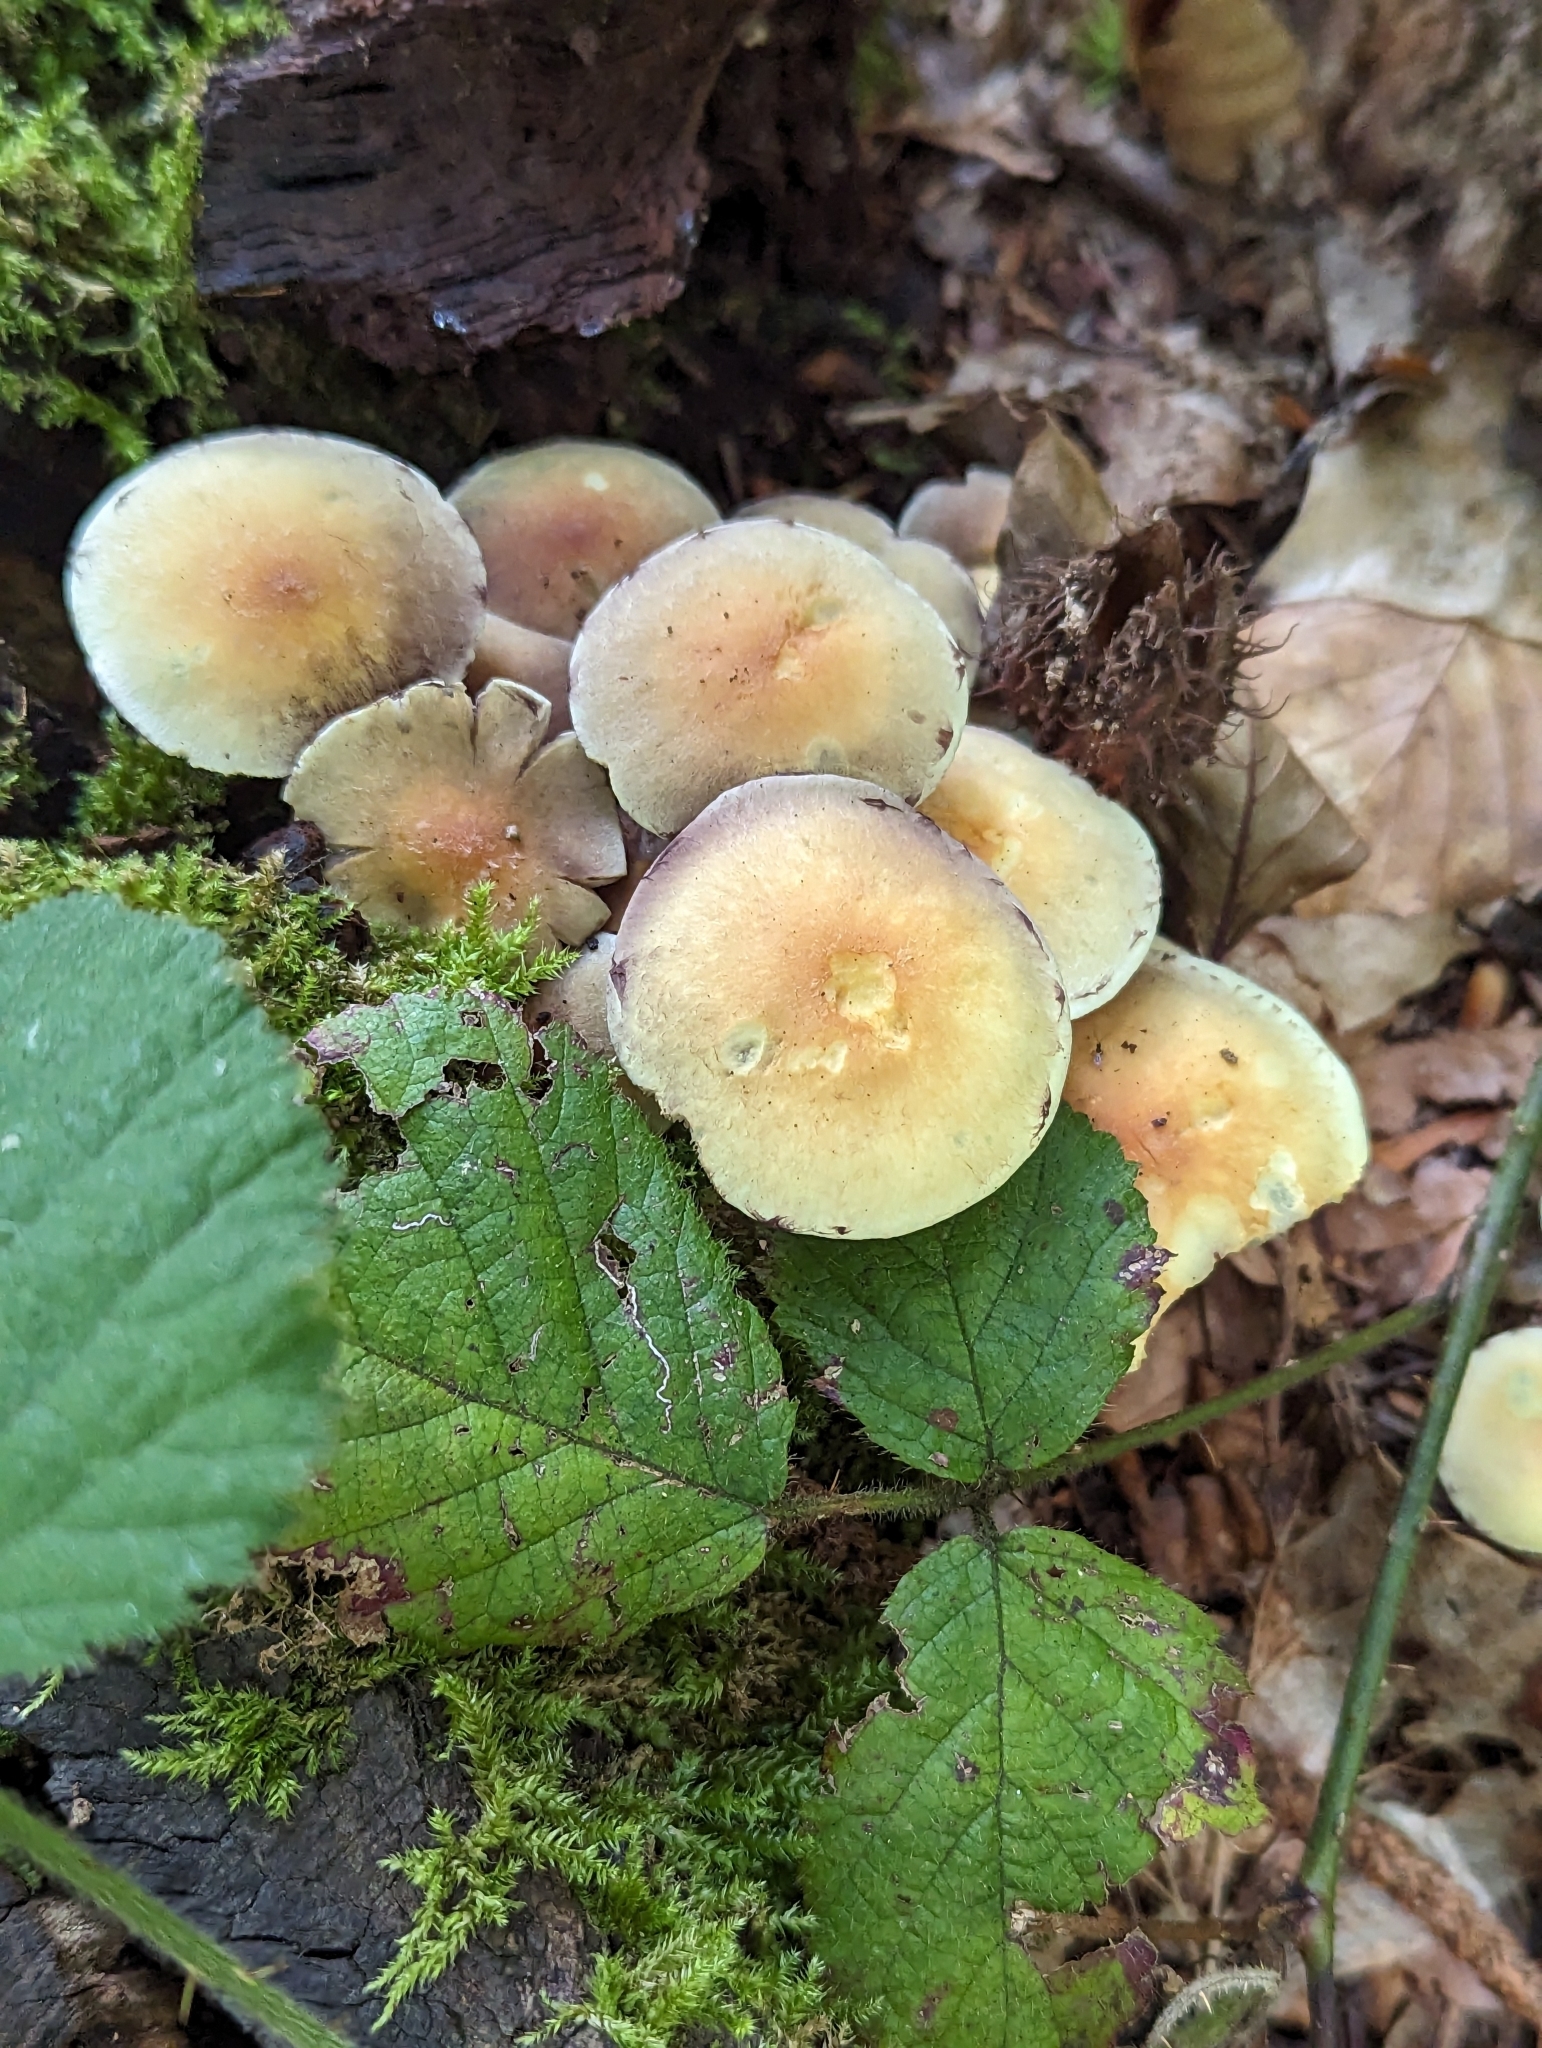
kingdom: Fungi
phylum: Basidiomycota
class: Agaricomycetes
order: Agaricales
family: Strophariaceae
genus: Hypholoma
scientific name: Hypholoma fasciculare
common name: Sulphur tuft
